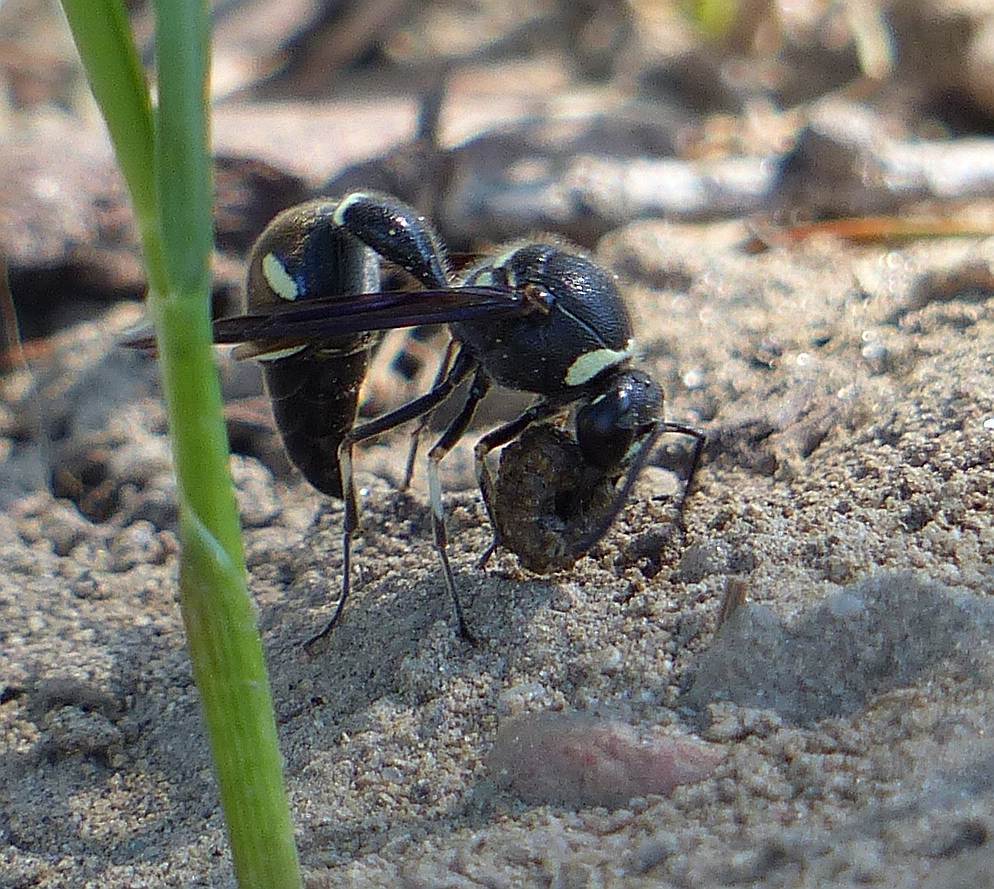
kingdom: Animalia
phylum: Arthropoda
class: Insecta
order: Hymenoptera
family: Vespidae
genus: Eumenes
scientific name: Eumenes fraternus
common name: Fraternal potter wasp
